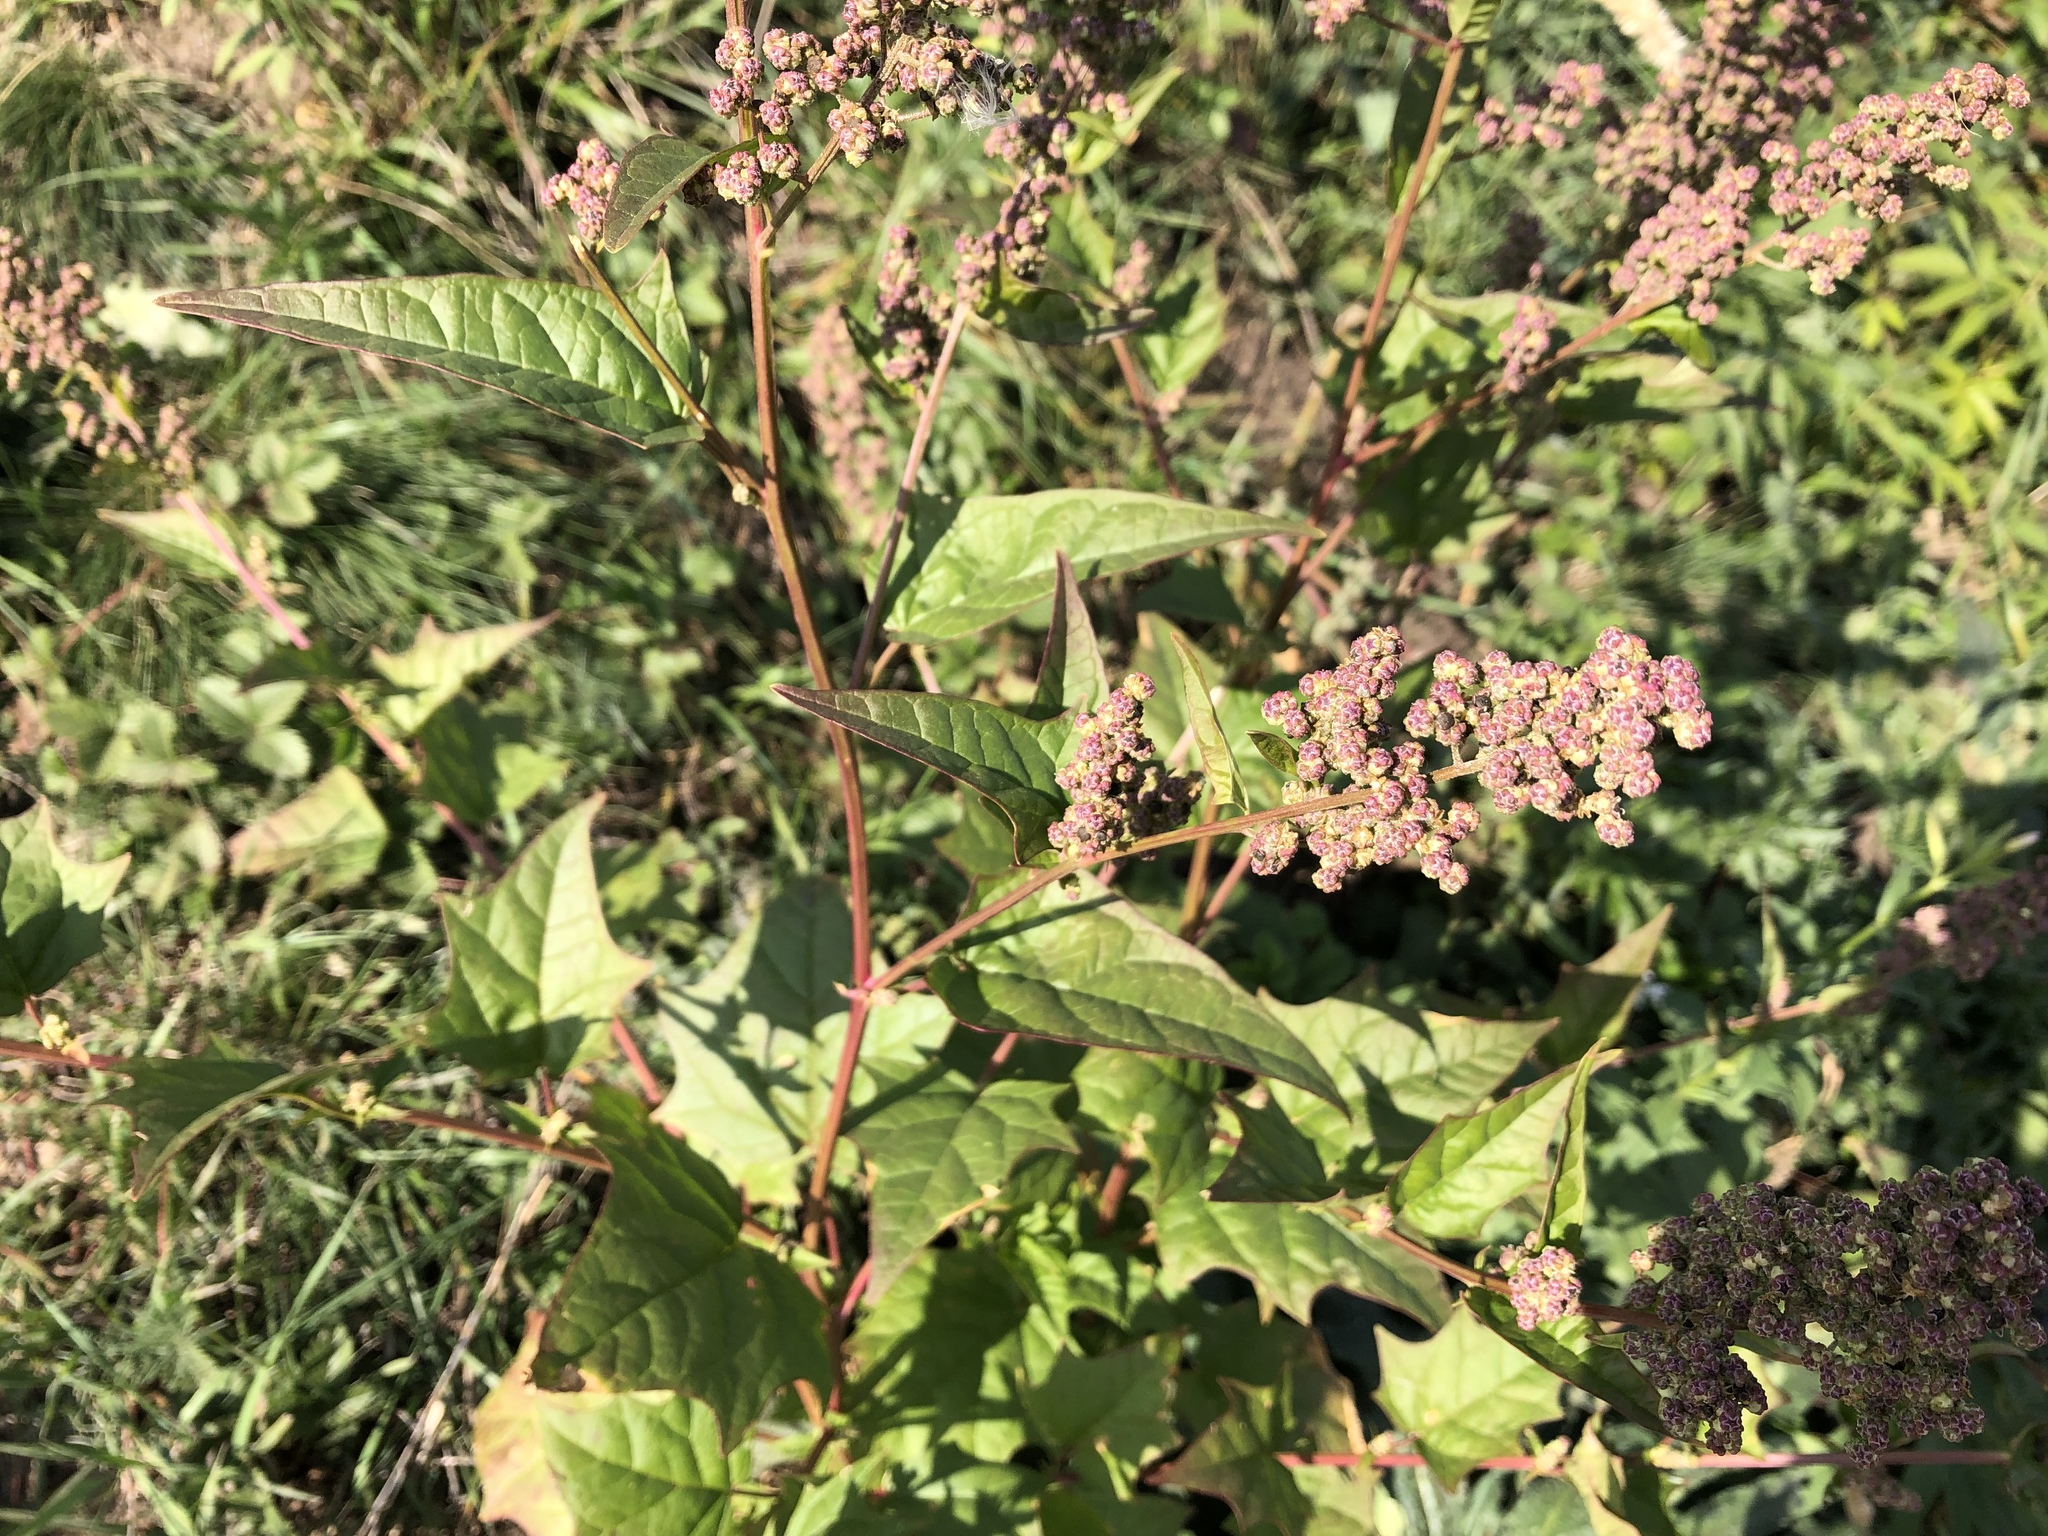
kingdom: Plantae
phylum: Tracheophyta
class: Magnoliopsida
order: Caryophyllales
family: Amaranthaceae
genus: Chenopodiastrum
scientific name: Chenopodiastrum hybridum
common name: Mapleleaf goosefoot
